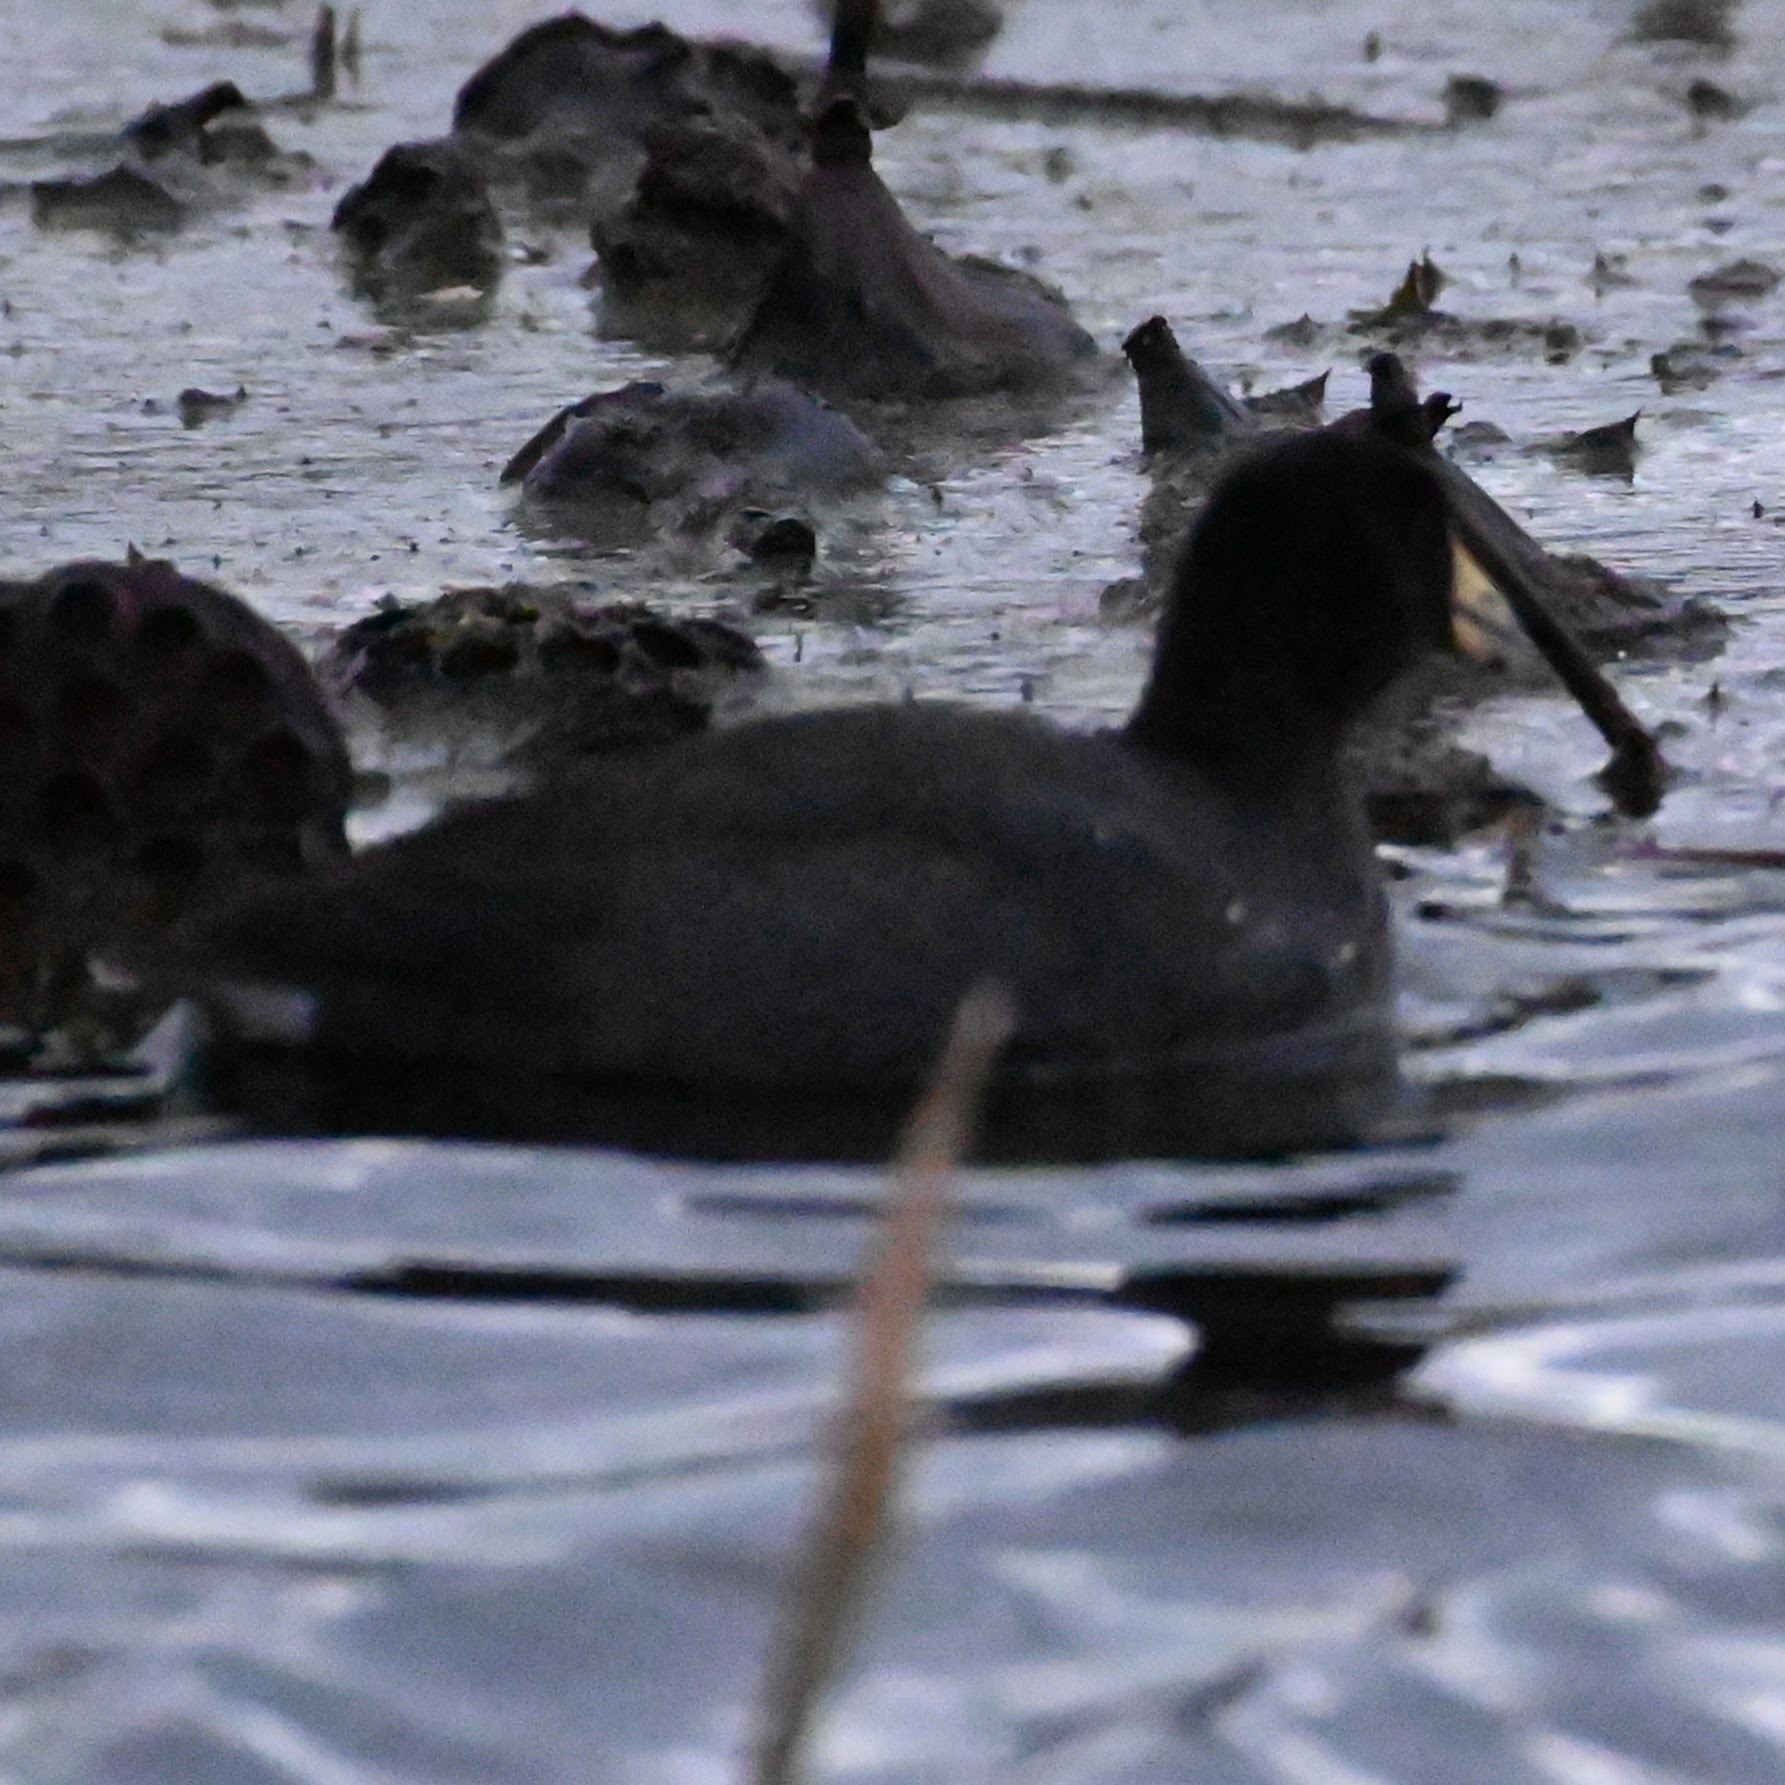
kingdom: Animalia
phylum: Chordata
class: Aves
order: Gruiformes
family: Rallidae
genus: Fulica
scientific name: Fulica americana
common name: American coot
